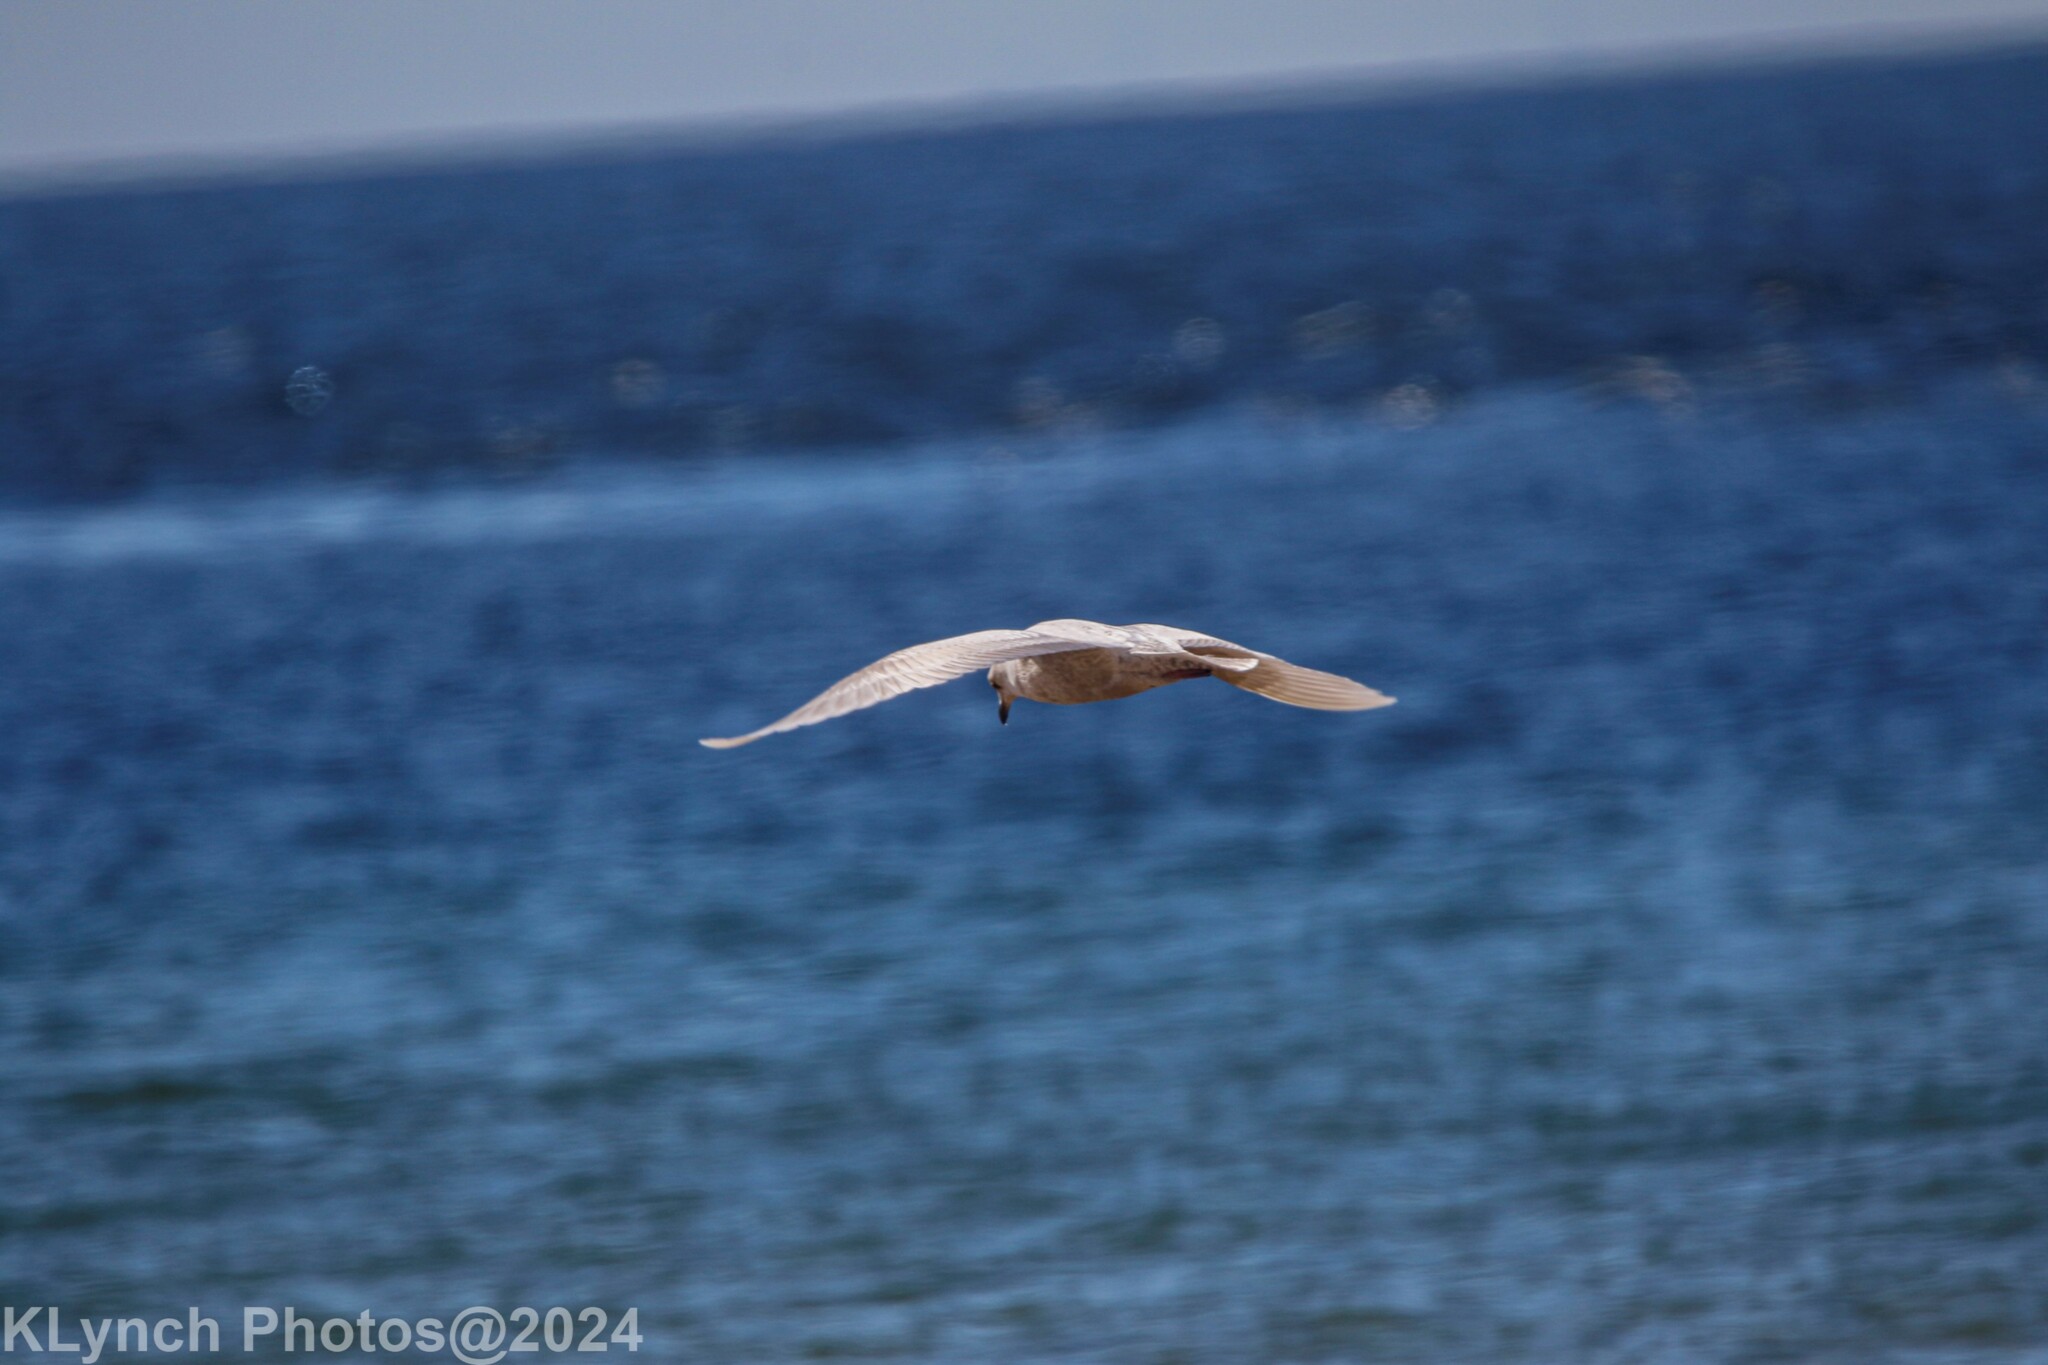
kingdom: Animalia
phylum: Chordata
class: Aves
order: Charadriiformes
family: Laridae
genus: Larus
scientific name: Larus glaucoides
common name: Iceland gull
